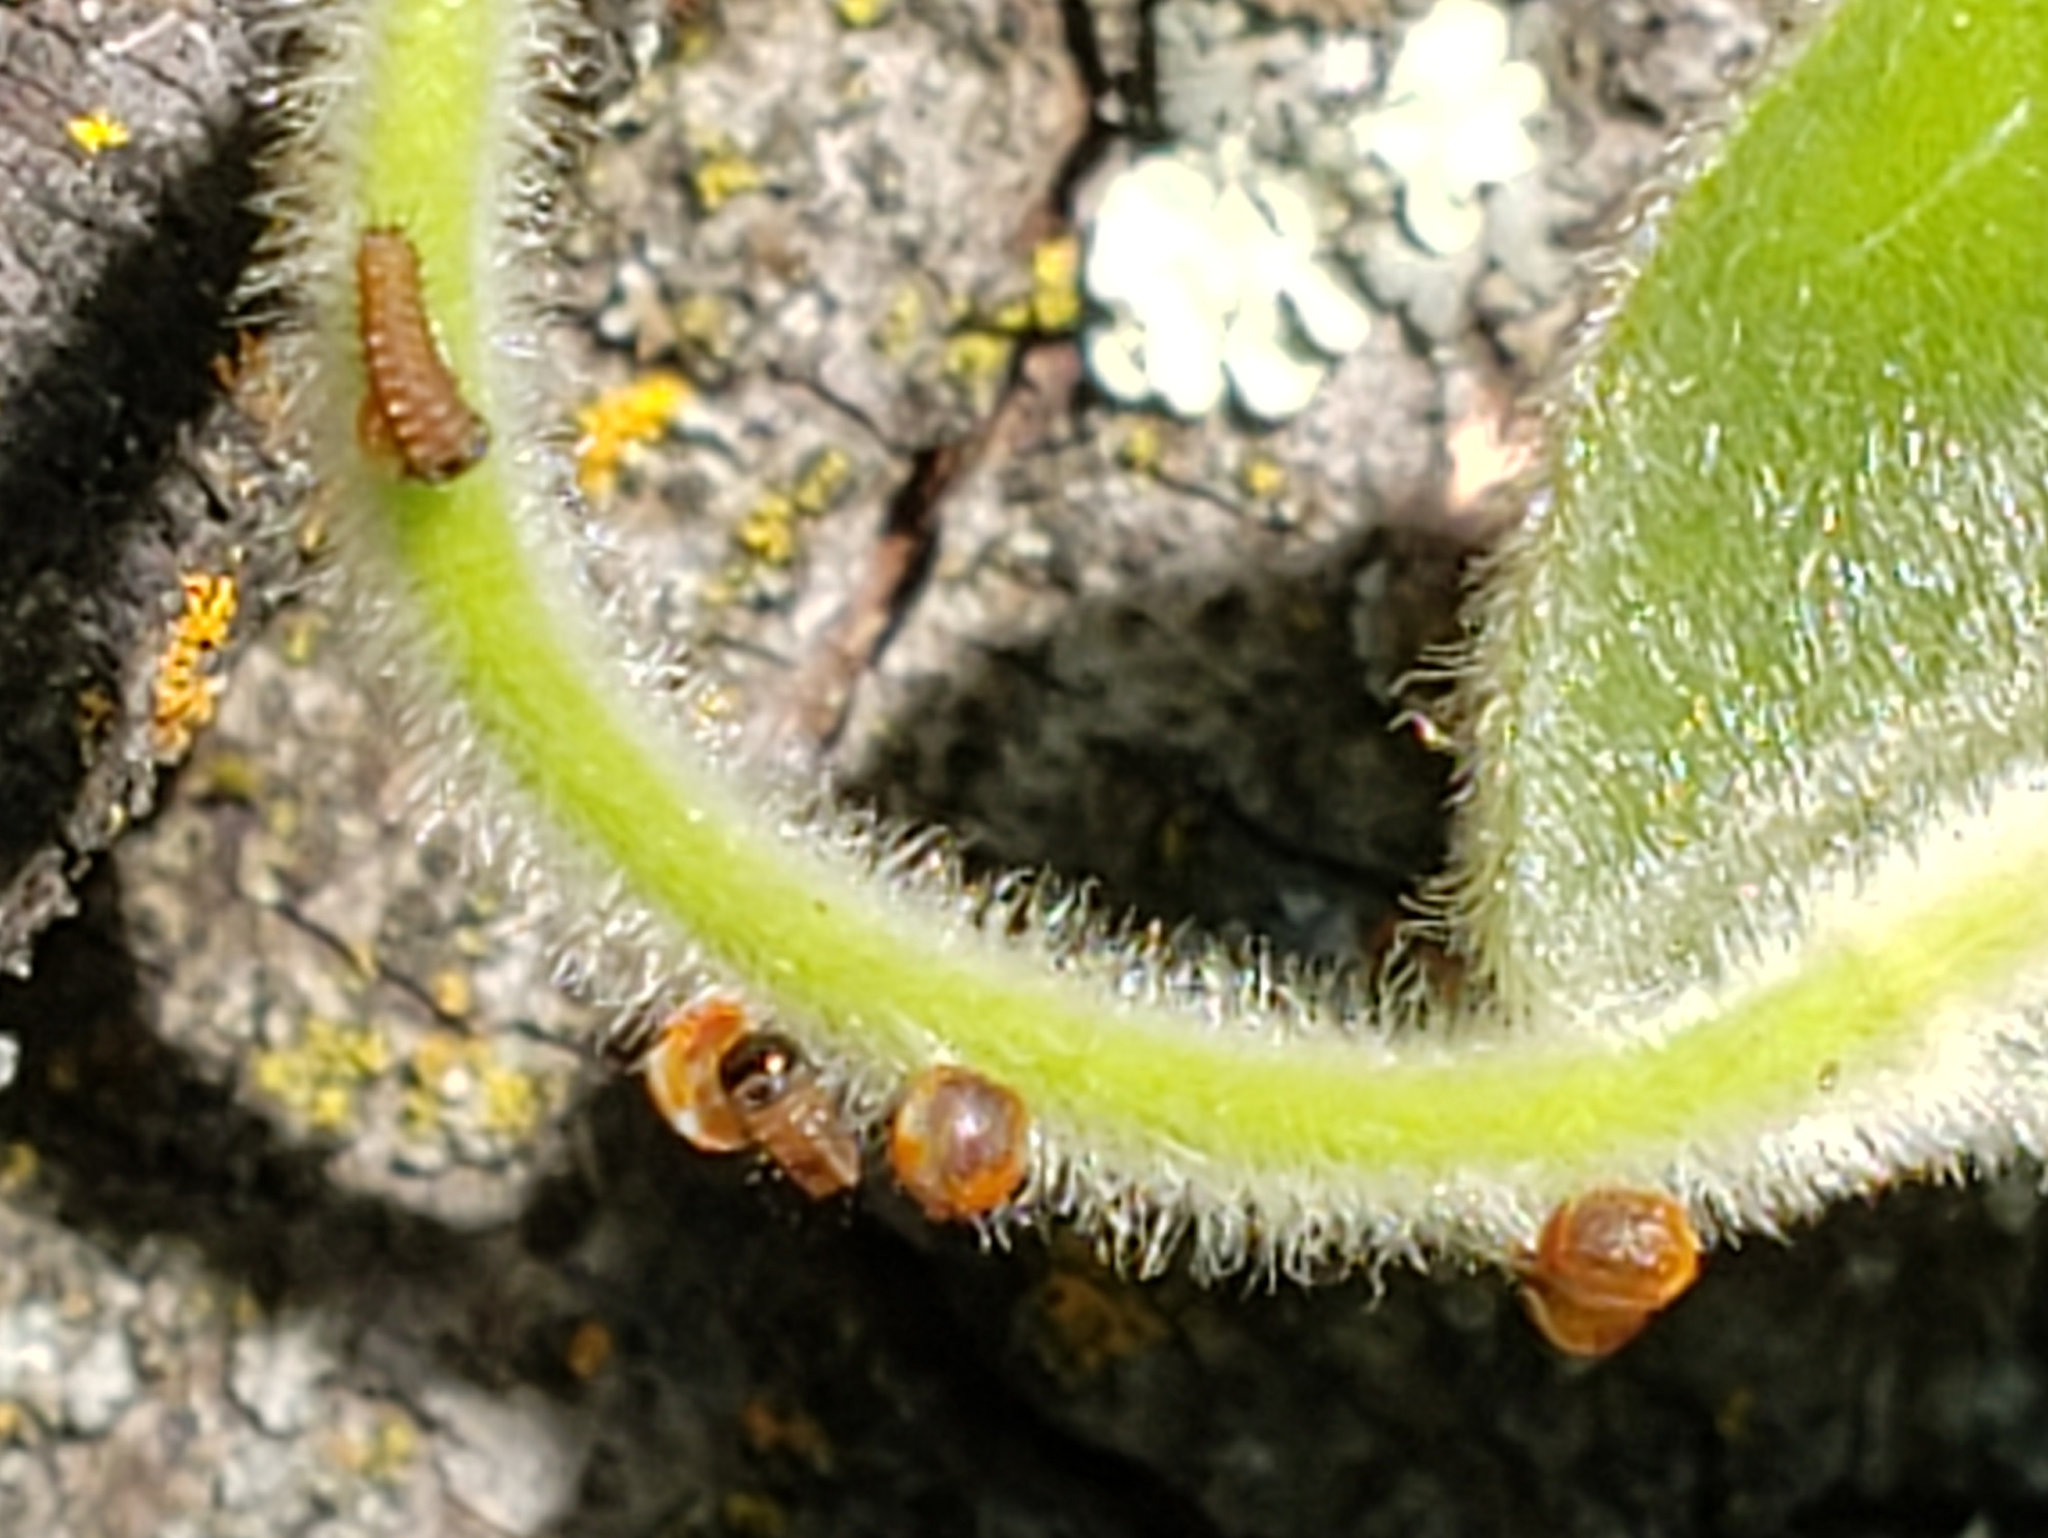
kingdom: Animalia
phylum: Arthropoda
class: Insecta
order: Lepidoptera
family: Papilionidae
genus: Battus
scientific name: Battus philenor
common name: Pipevine swallowtail
